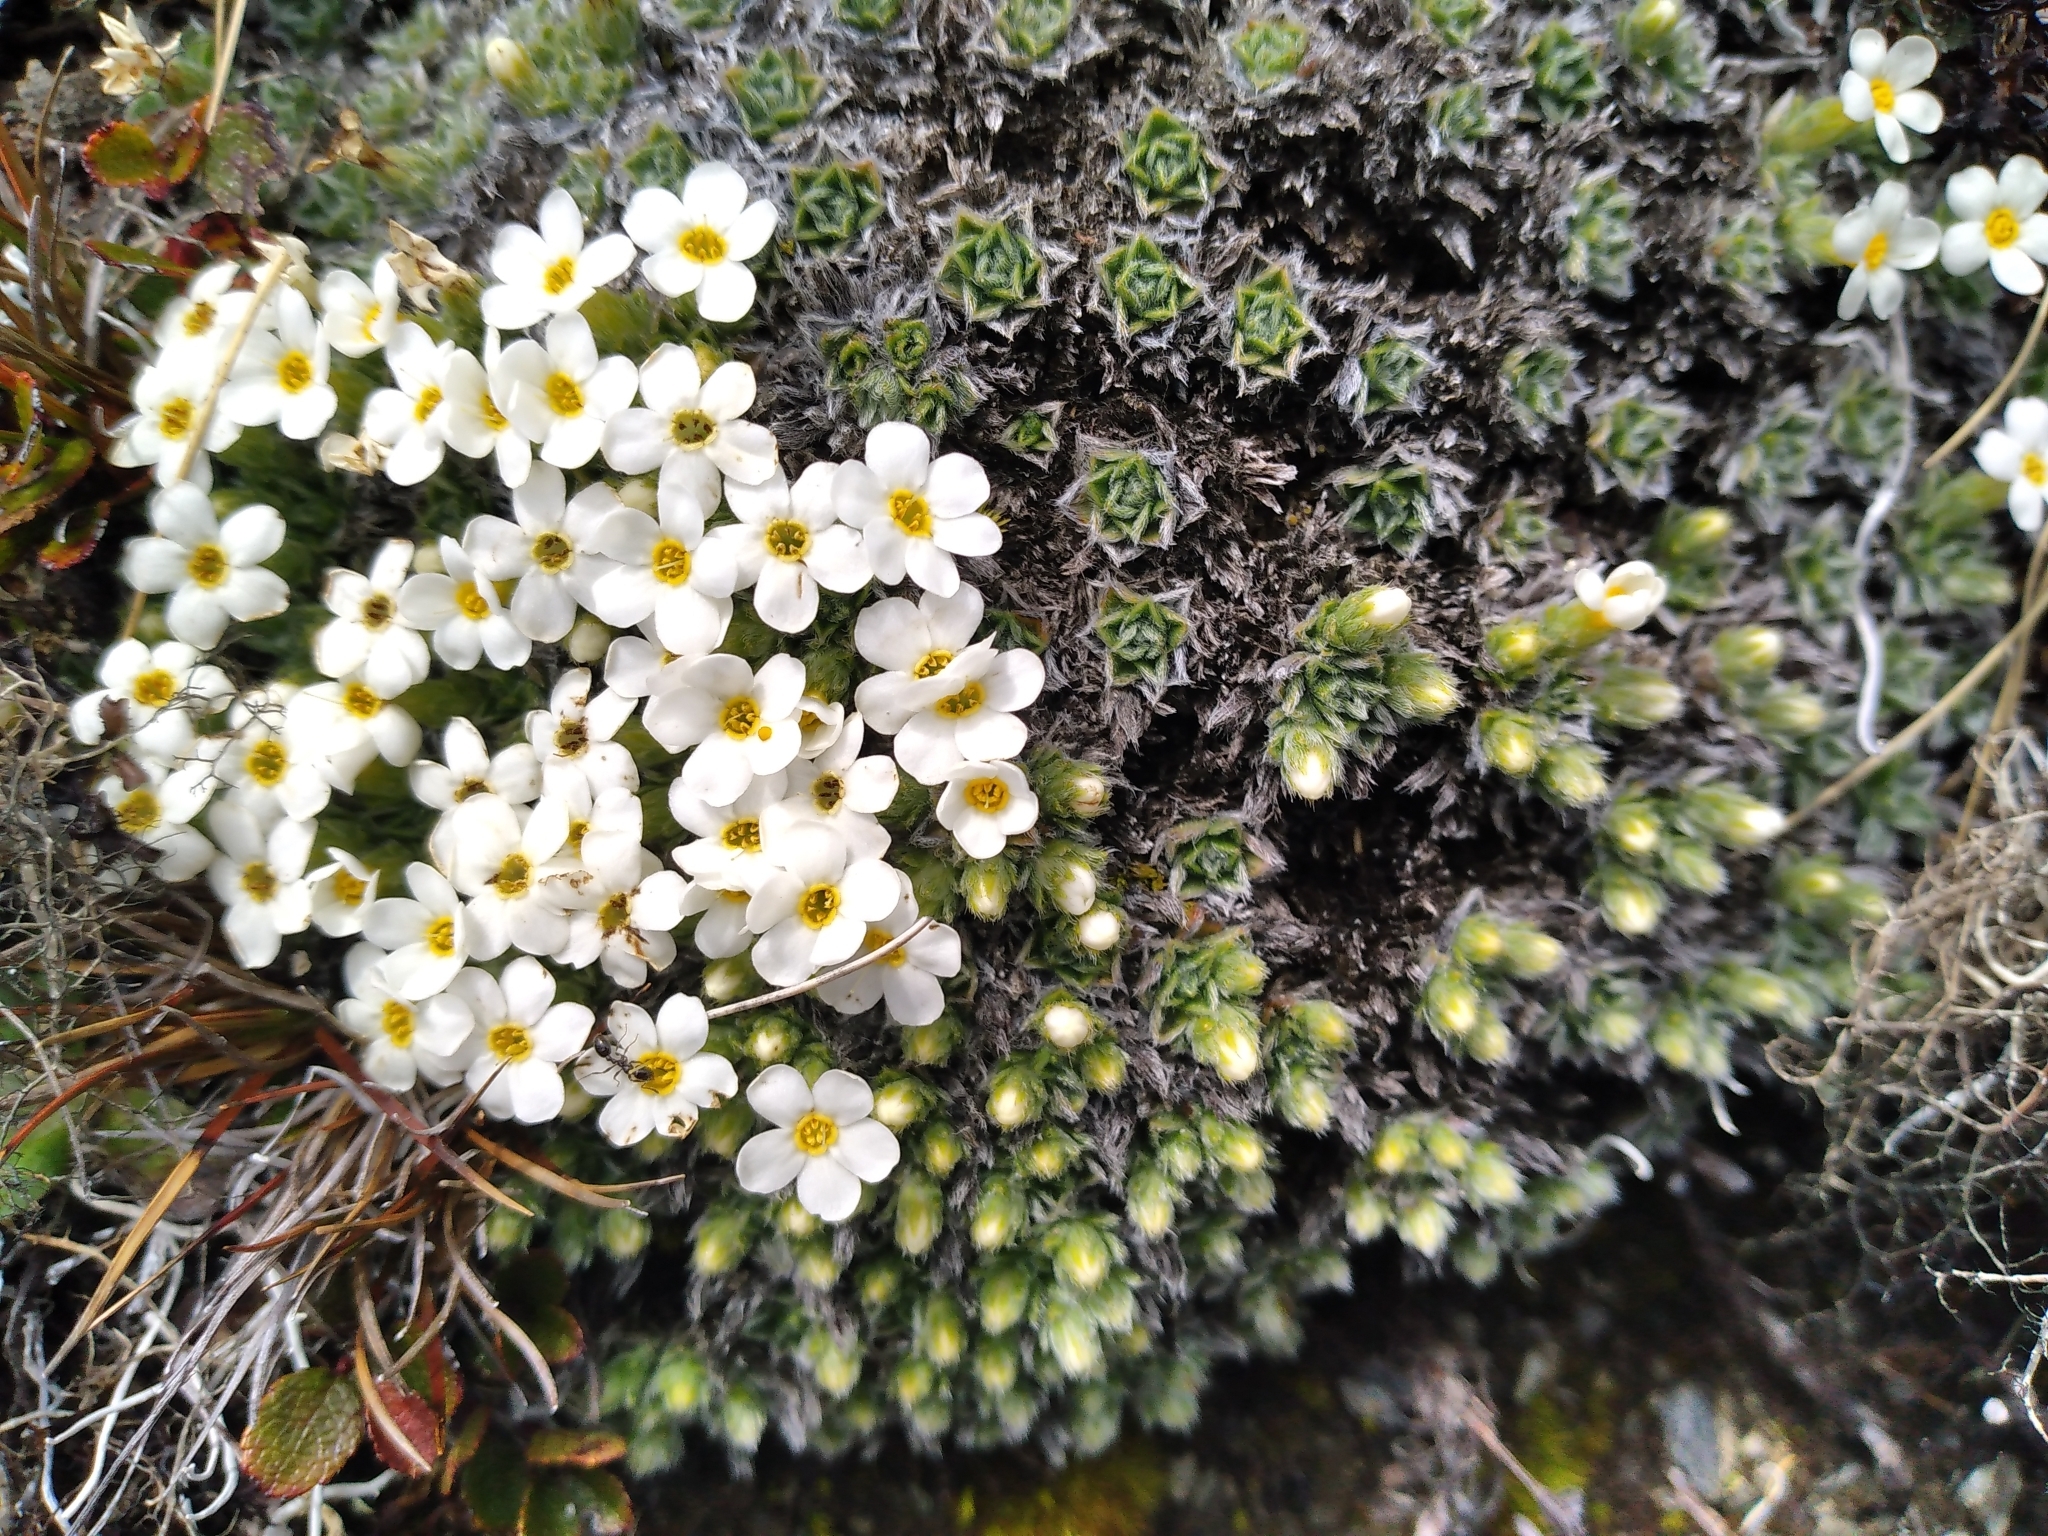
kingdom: Plantae
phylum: Tracheophyta
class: Magnoliopsida
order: Boraginales
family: Boraginaceae
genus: Myosotis
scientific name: Myosotis pulvinaris
